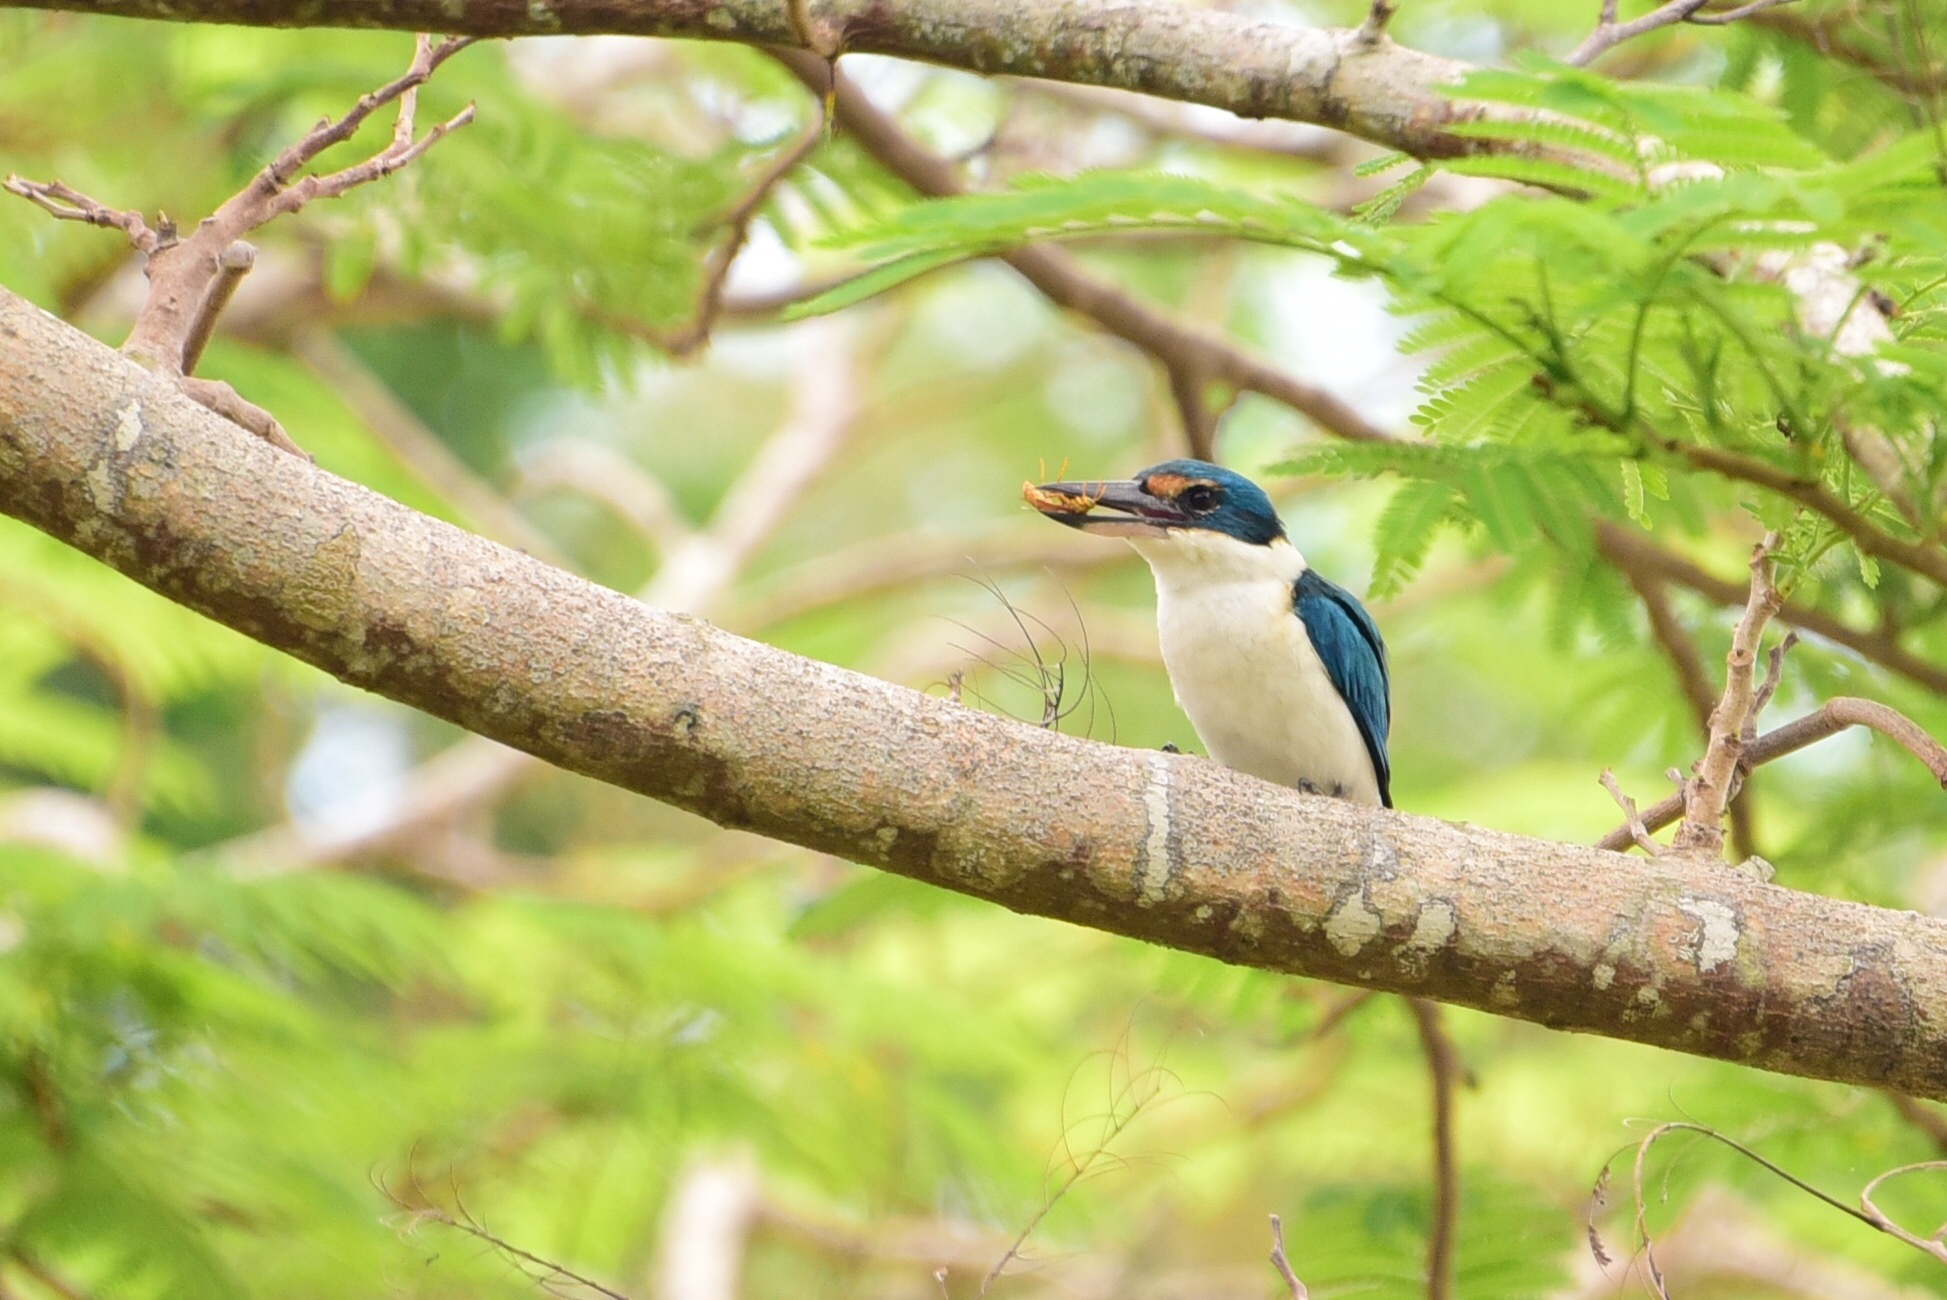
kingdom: Animalia
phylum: Chordata
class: Aves
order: Coraciiformes
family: Alcedinidae
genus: Todiramphus
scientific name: Todiramphus sacer
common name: Pacific kingfisher
